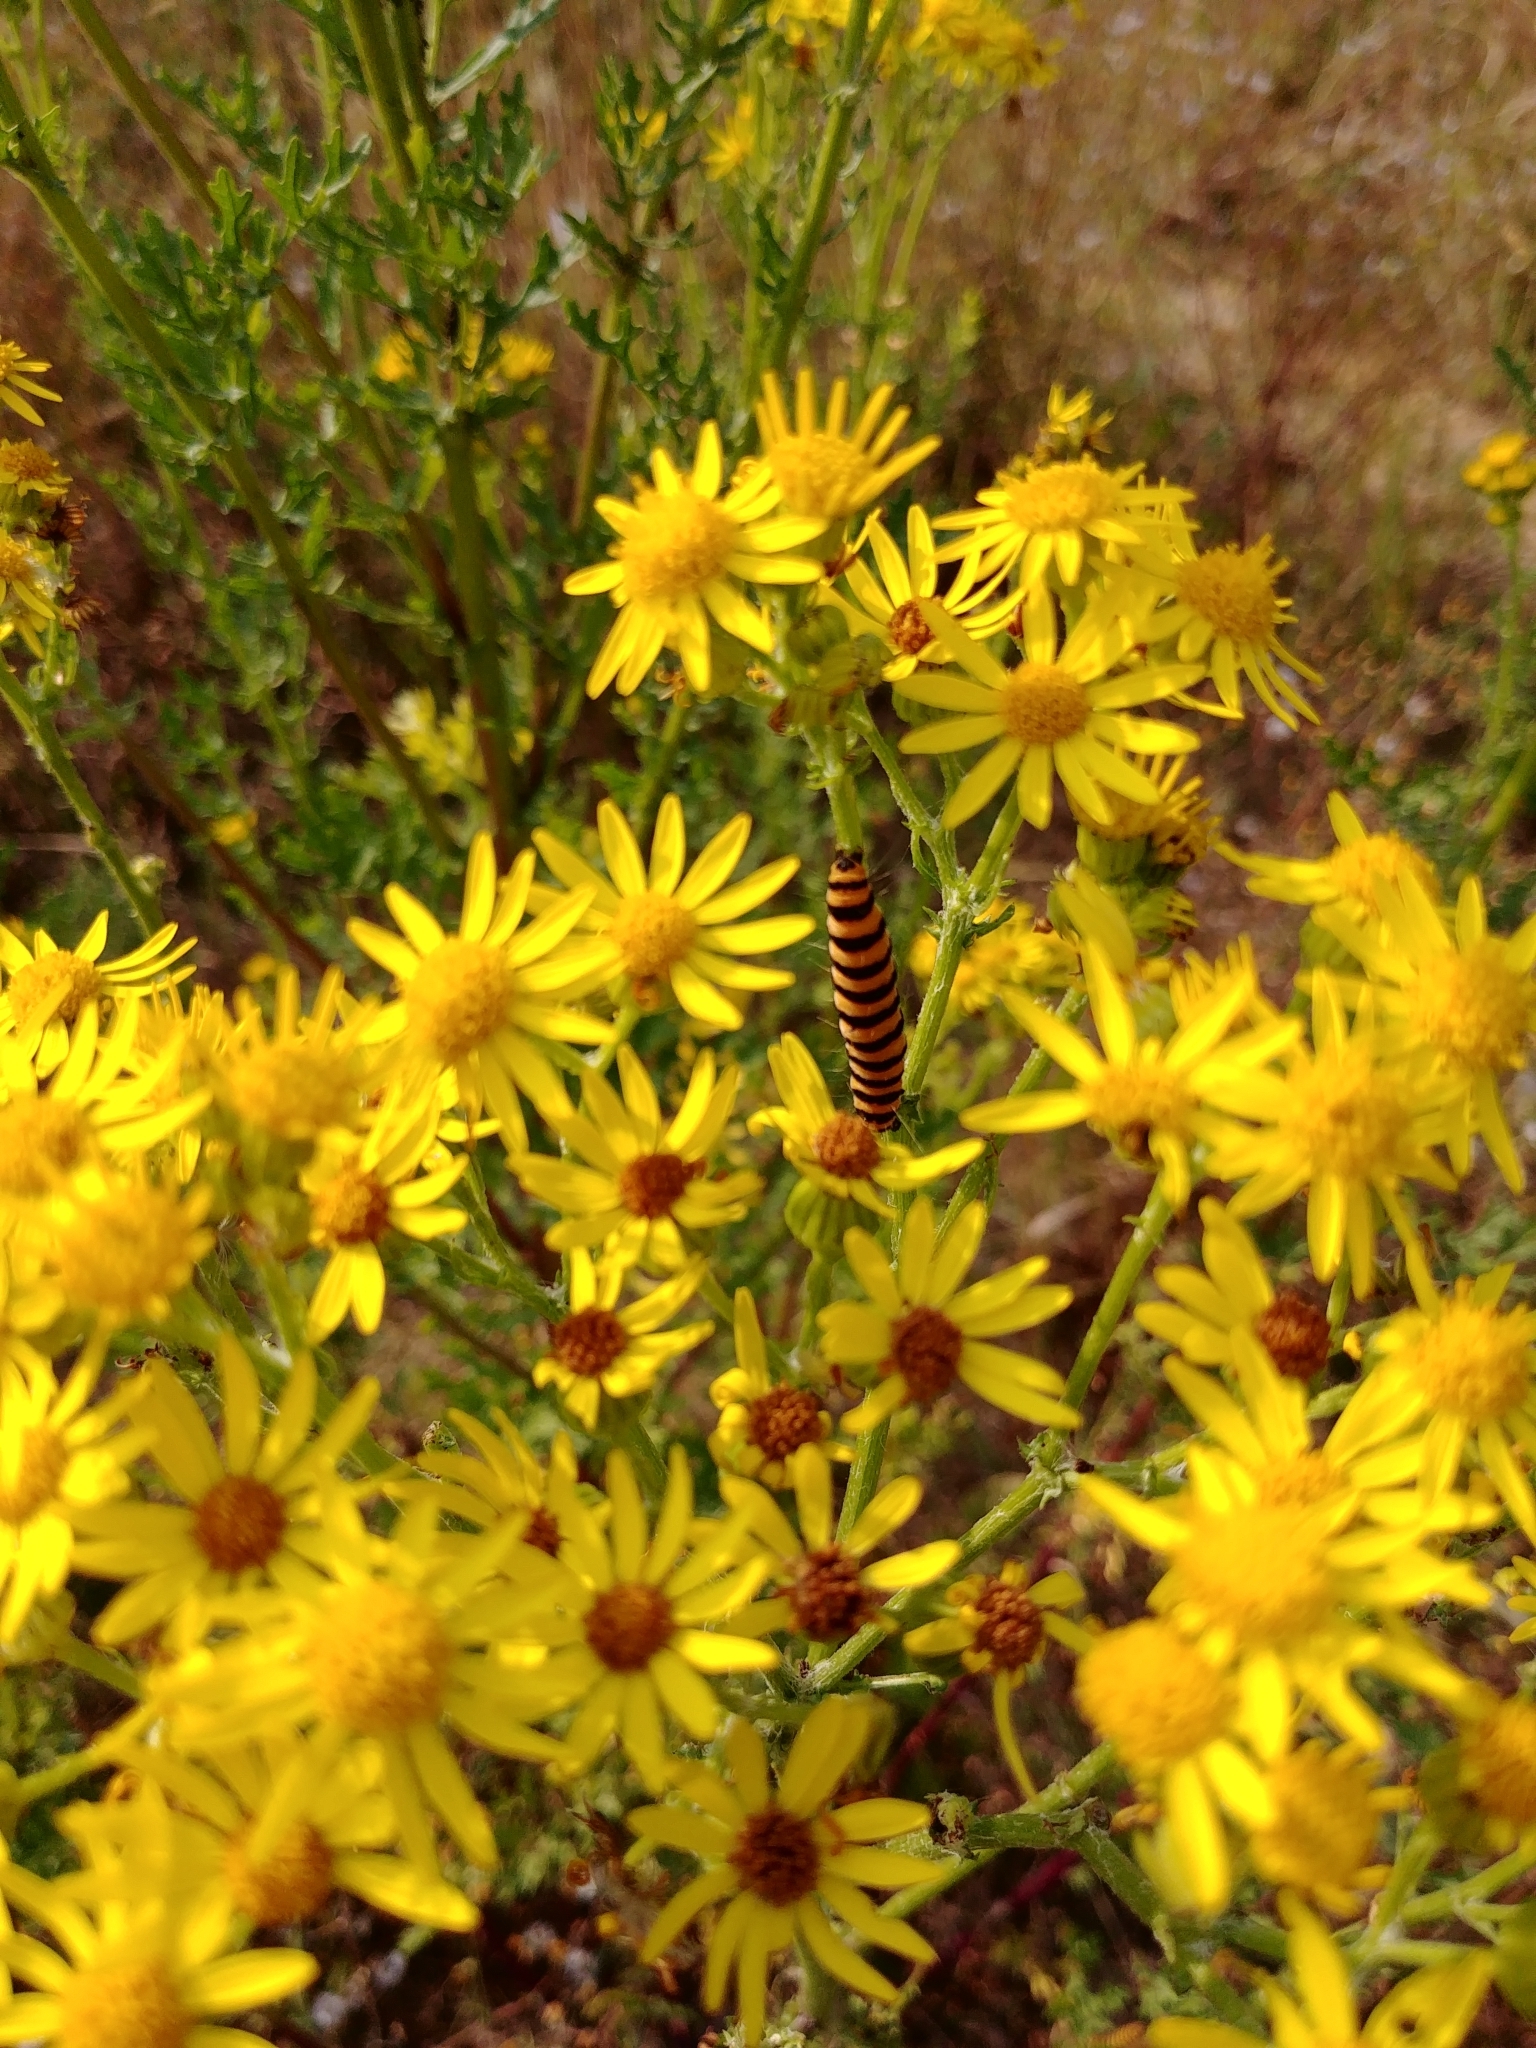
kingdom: Animalia
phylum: Arthropoda
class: Insecta
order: Lepidoptera
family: Erebidae
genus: Tyria
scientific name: Tyria jacobaeae
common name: Cinnabar
